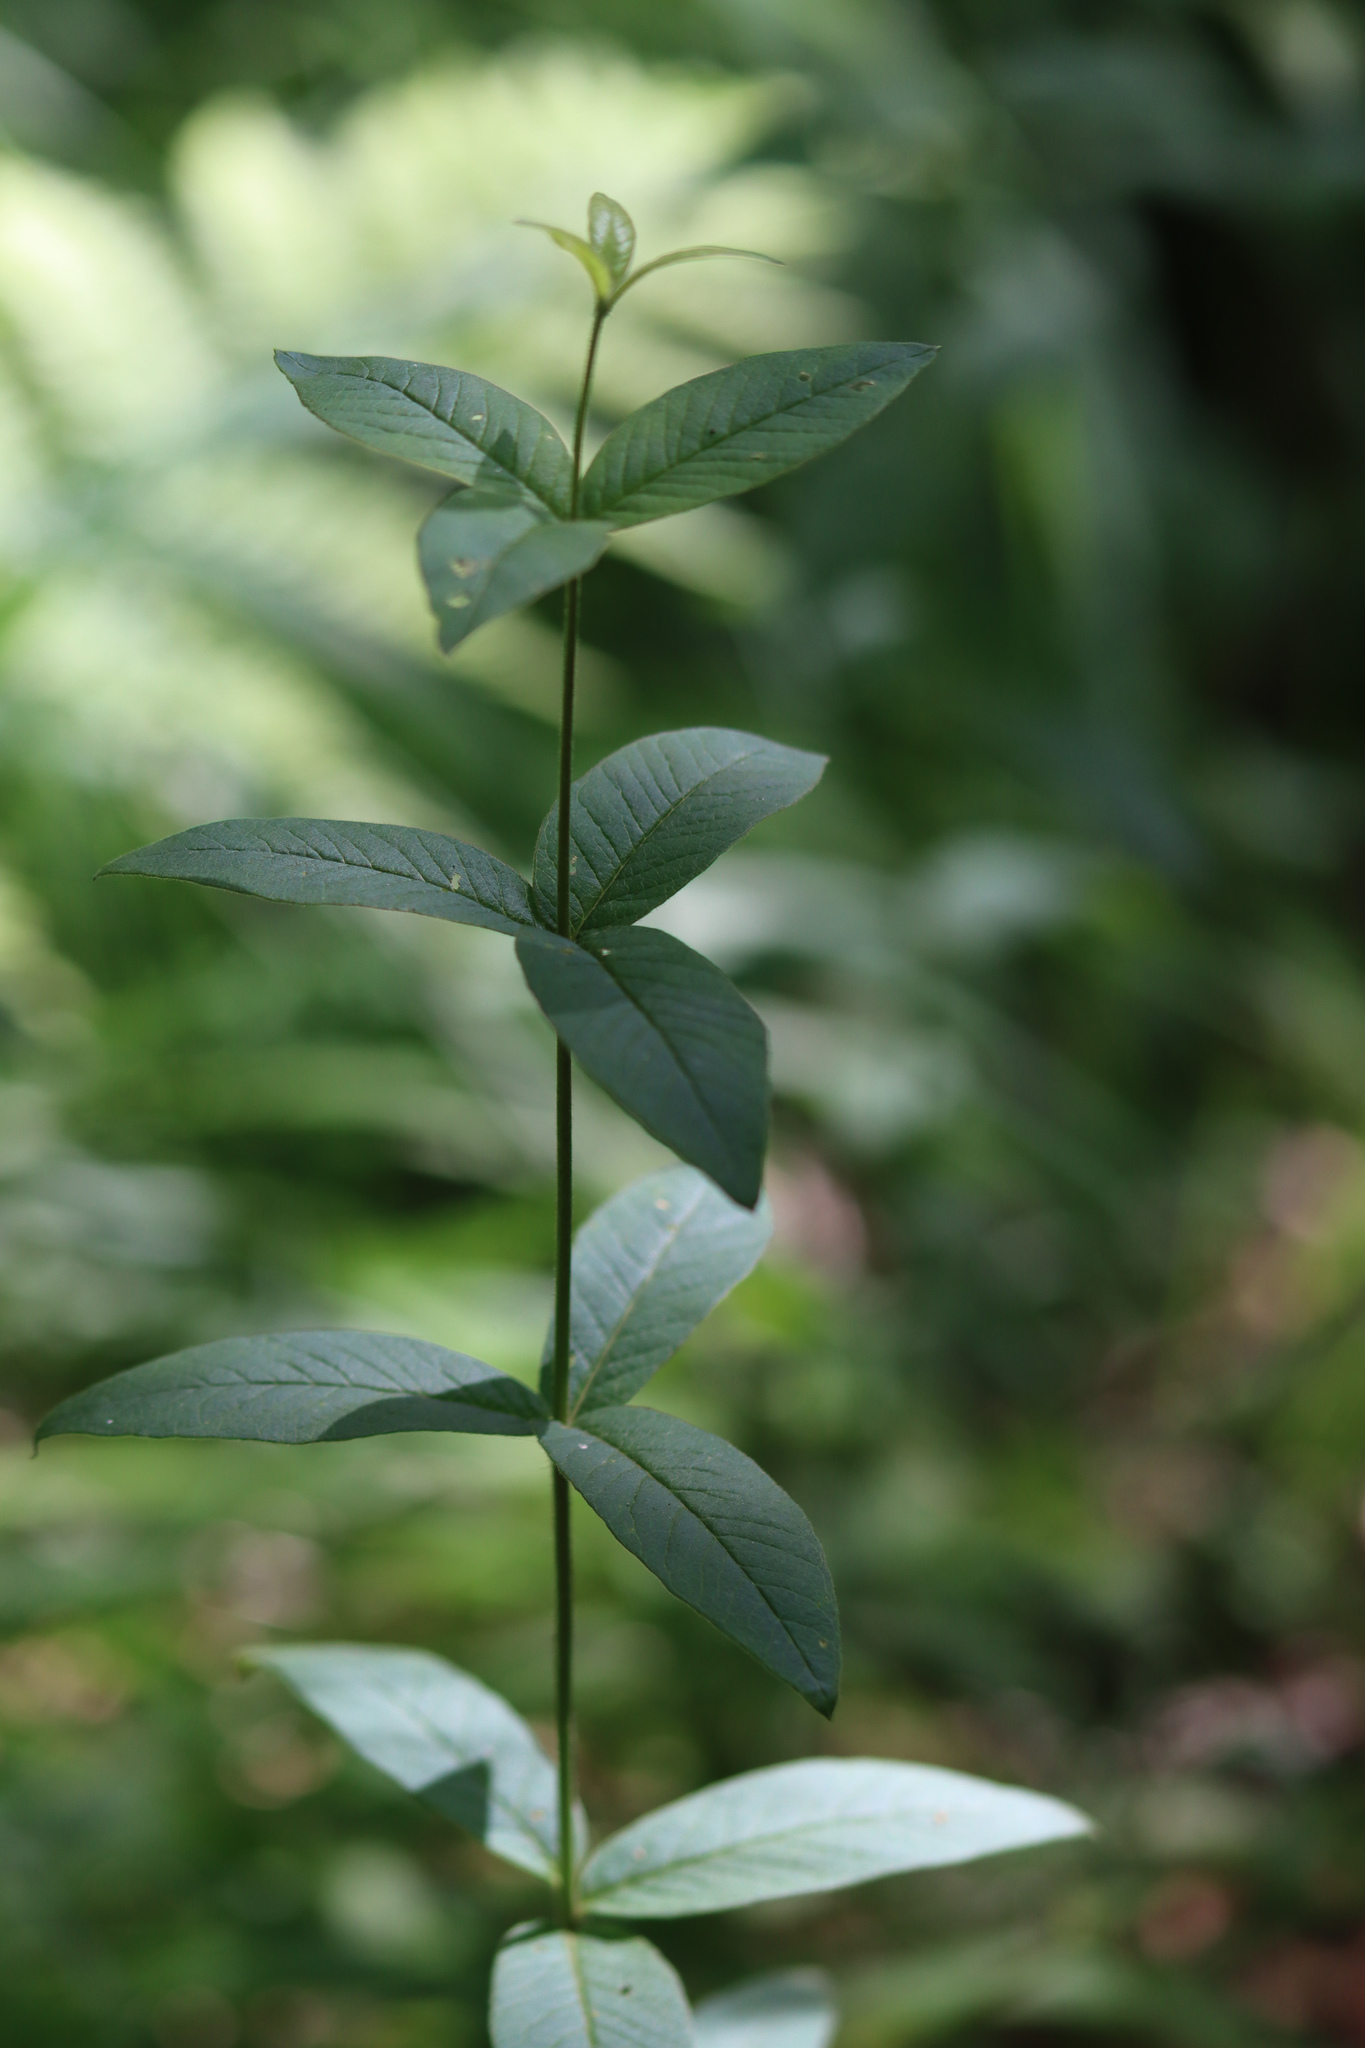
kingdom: Plantae
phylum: Tracheophyta
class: Magnoliopsida
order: Ericales
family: Primulaceae
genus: Lysimachia
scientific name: Lysimachia vulgaris
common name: Yellow loosestrife
